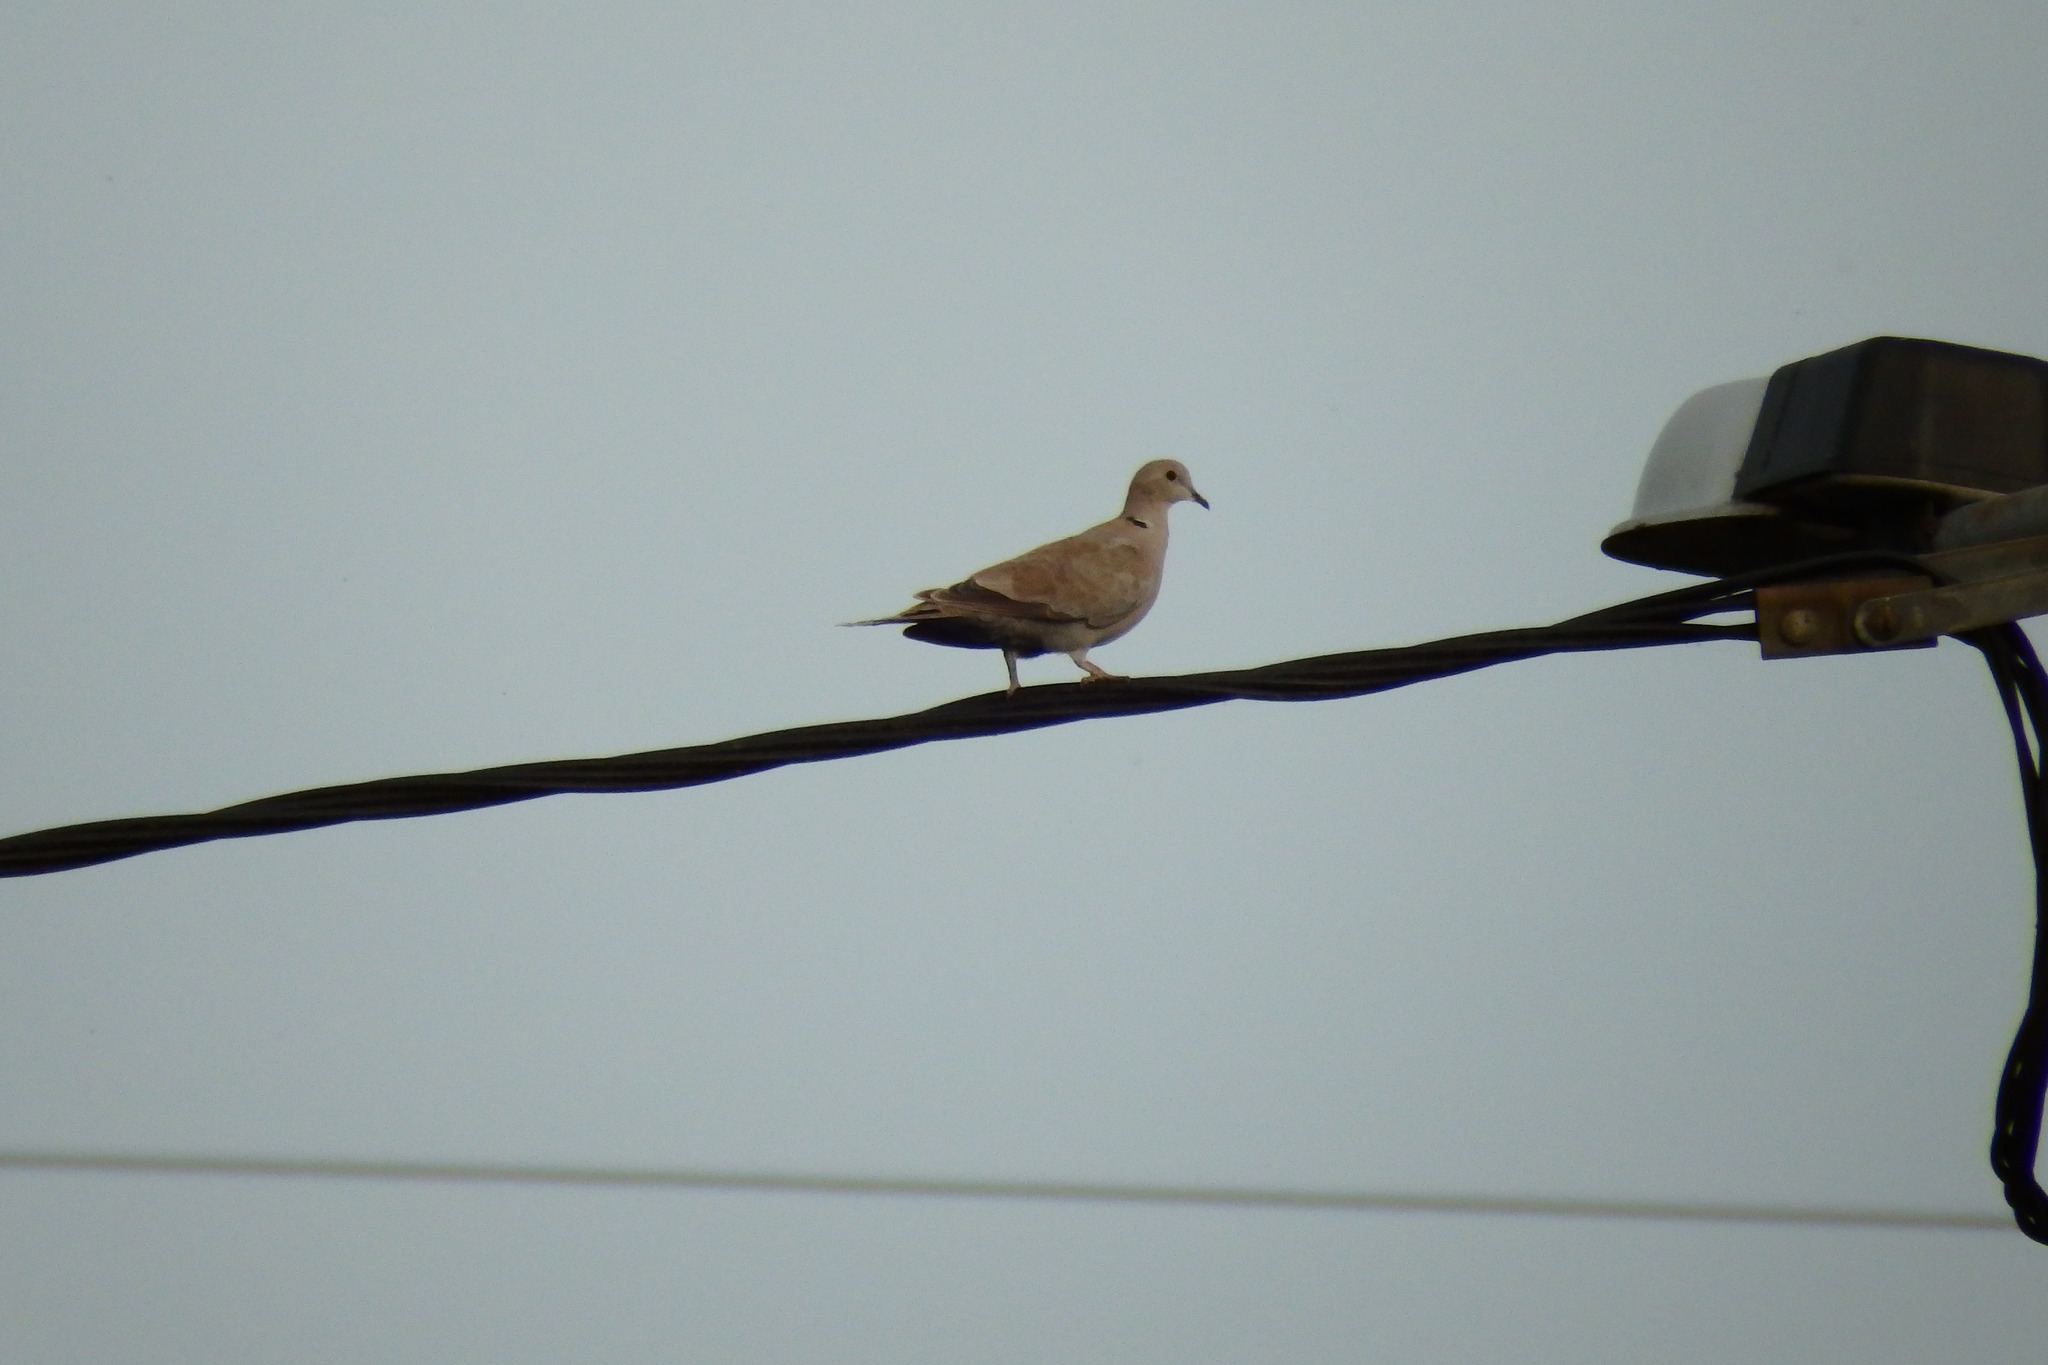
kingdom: Animalia
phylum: Chordata
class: Aves
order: Columbiformes
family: Columbidae
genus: Streptopelia
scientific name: Streptopelia decaocto
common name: Eurasian collared dove
